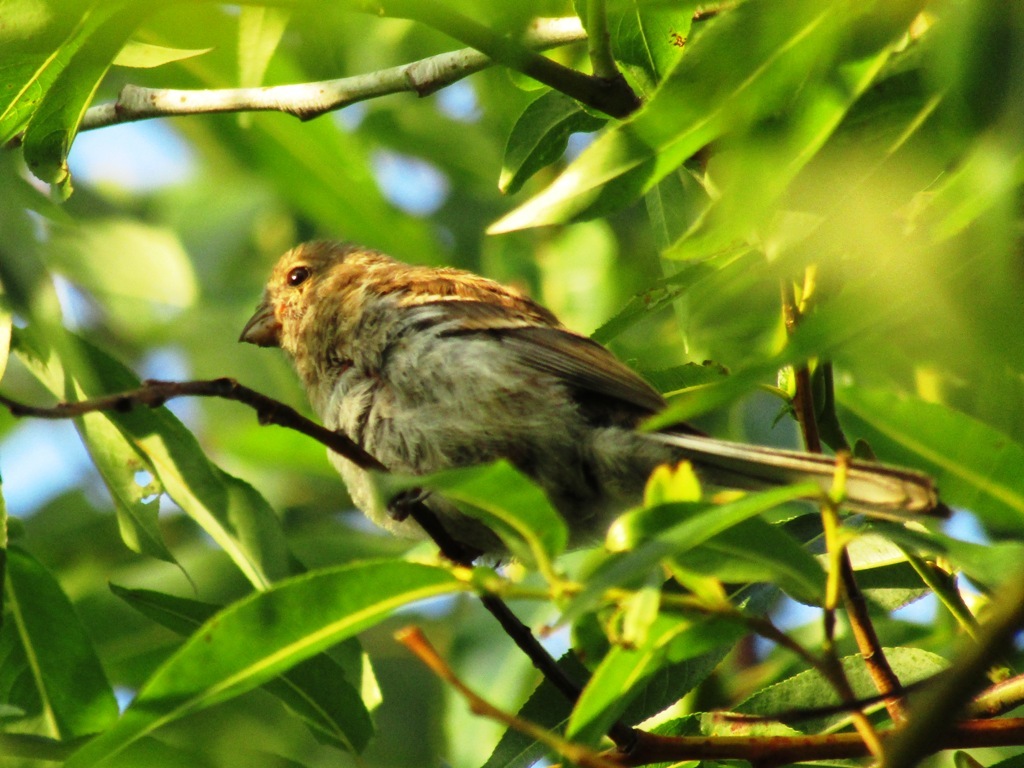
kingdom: Animalia
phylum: Chordata
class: Aves
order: Passeriformes
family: Fringillidae
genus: Carpodacus
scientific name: Carpodacus sibiricus
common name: Long-tailed rosefinch
